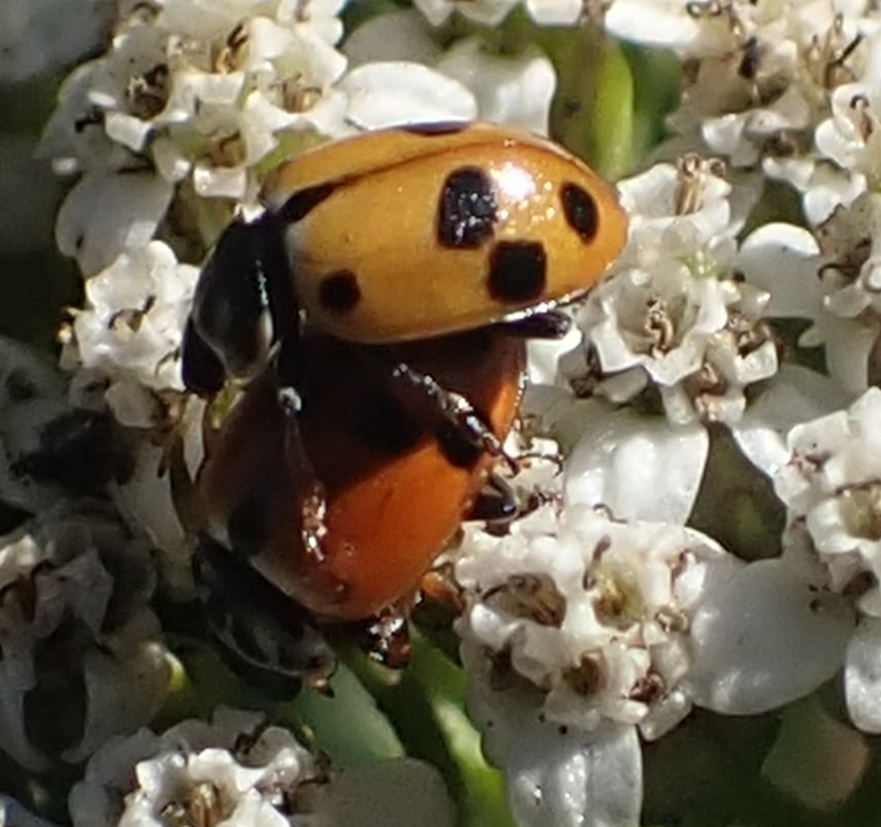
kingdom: Animalia
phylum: Arthropoda
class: Insecta
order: Coleoptera
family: Coccinellidae
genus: Hippodamia
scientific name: Hippodamia variegata
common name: Ladybird beetle
